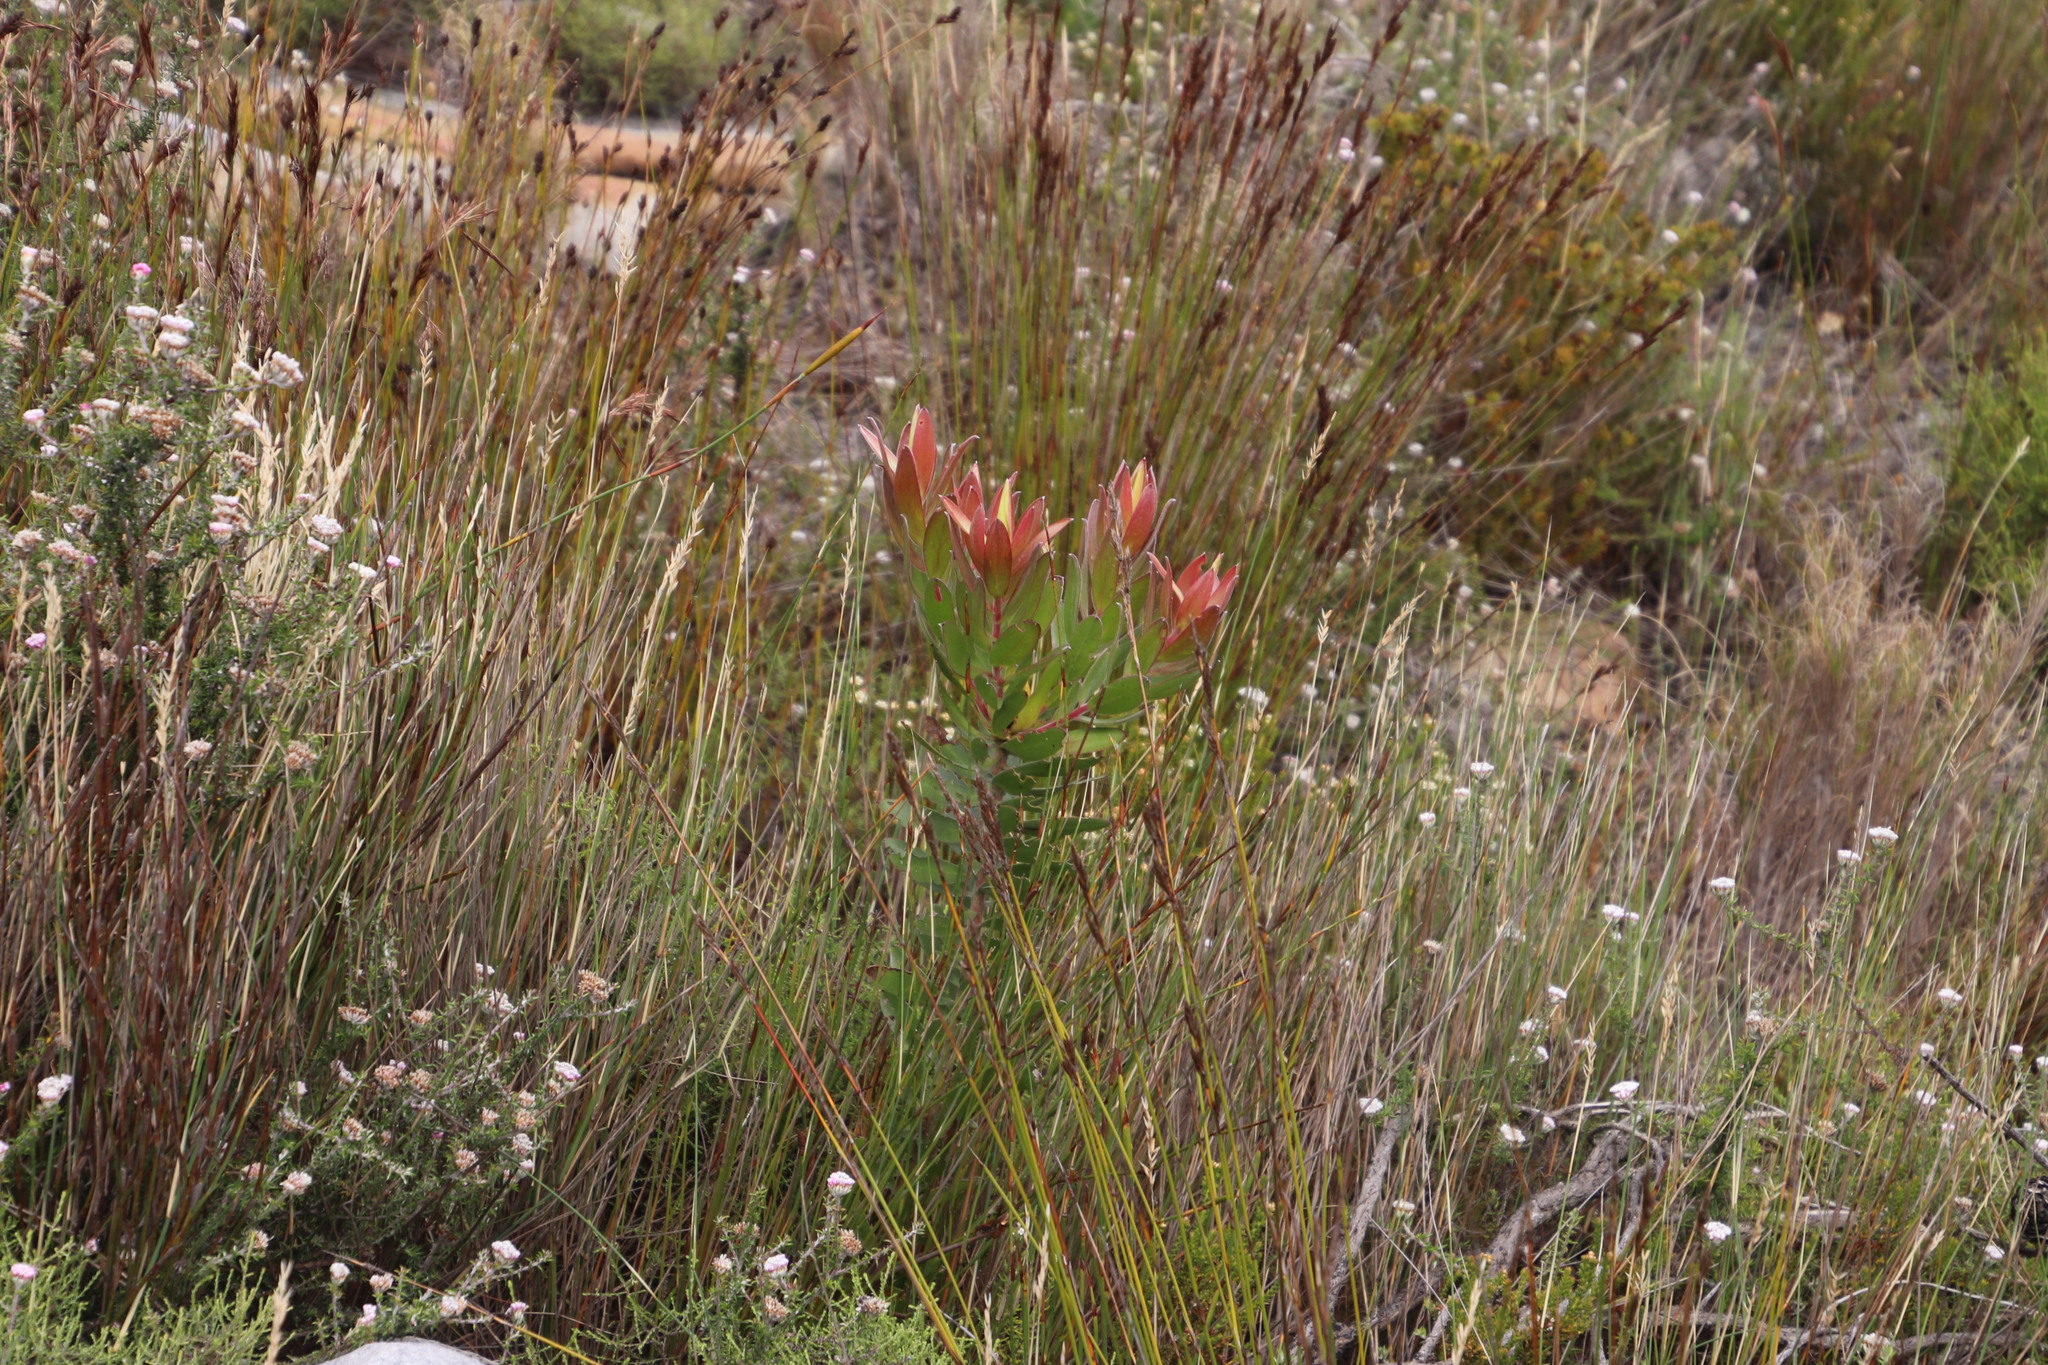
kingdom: Plantae
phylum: Tracheophyta
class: Magnoliopsida
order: Proteales
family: Proteaceae
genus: Leucadendron
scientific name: Leucadendron laureolum
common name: Golden sunshinebush
